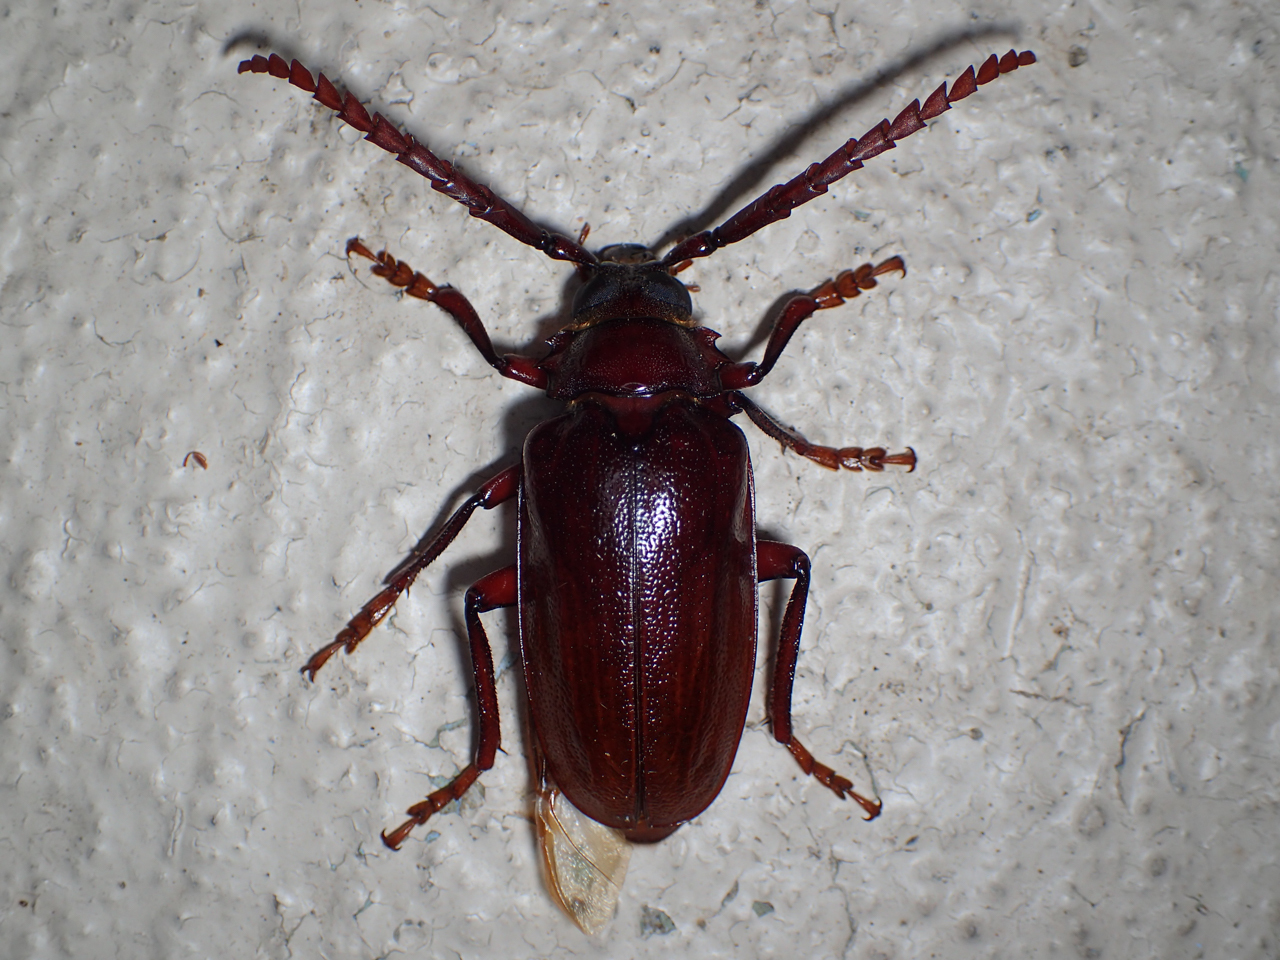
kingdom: Animalia
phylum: Arthropoda
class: Insecta
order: Coleoptera
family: Cerambycidae
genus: Prionus
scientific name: Prionus pocularis
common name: Tooth-necked longhorn beetle
